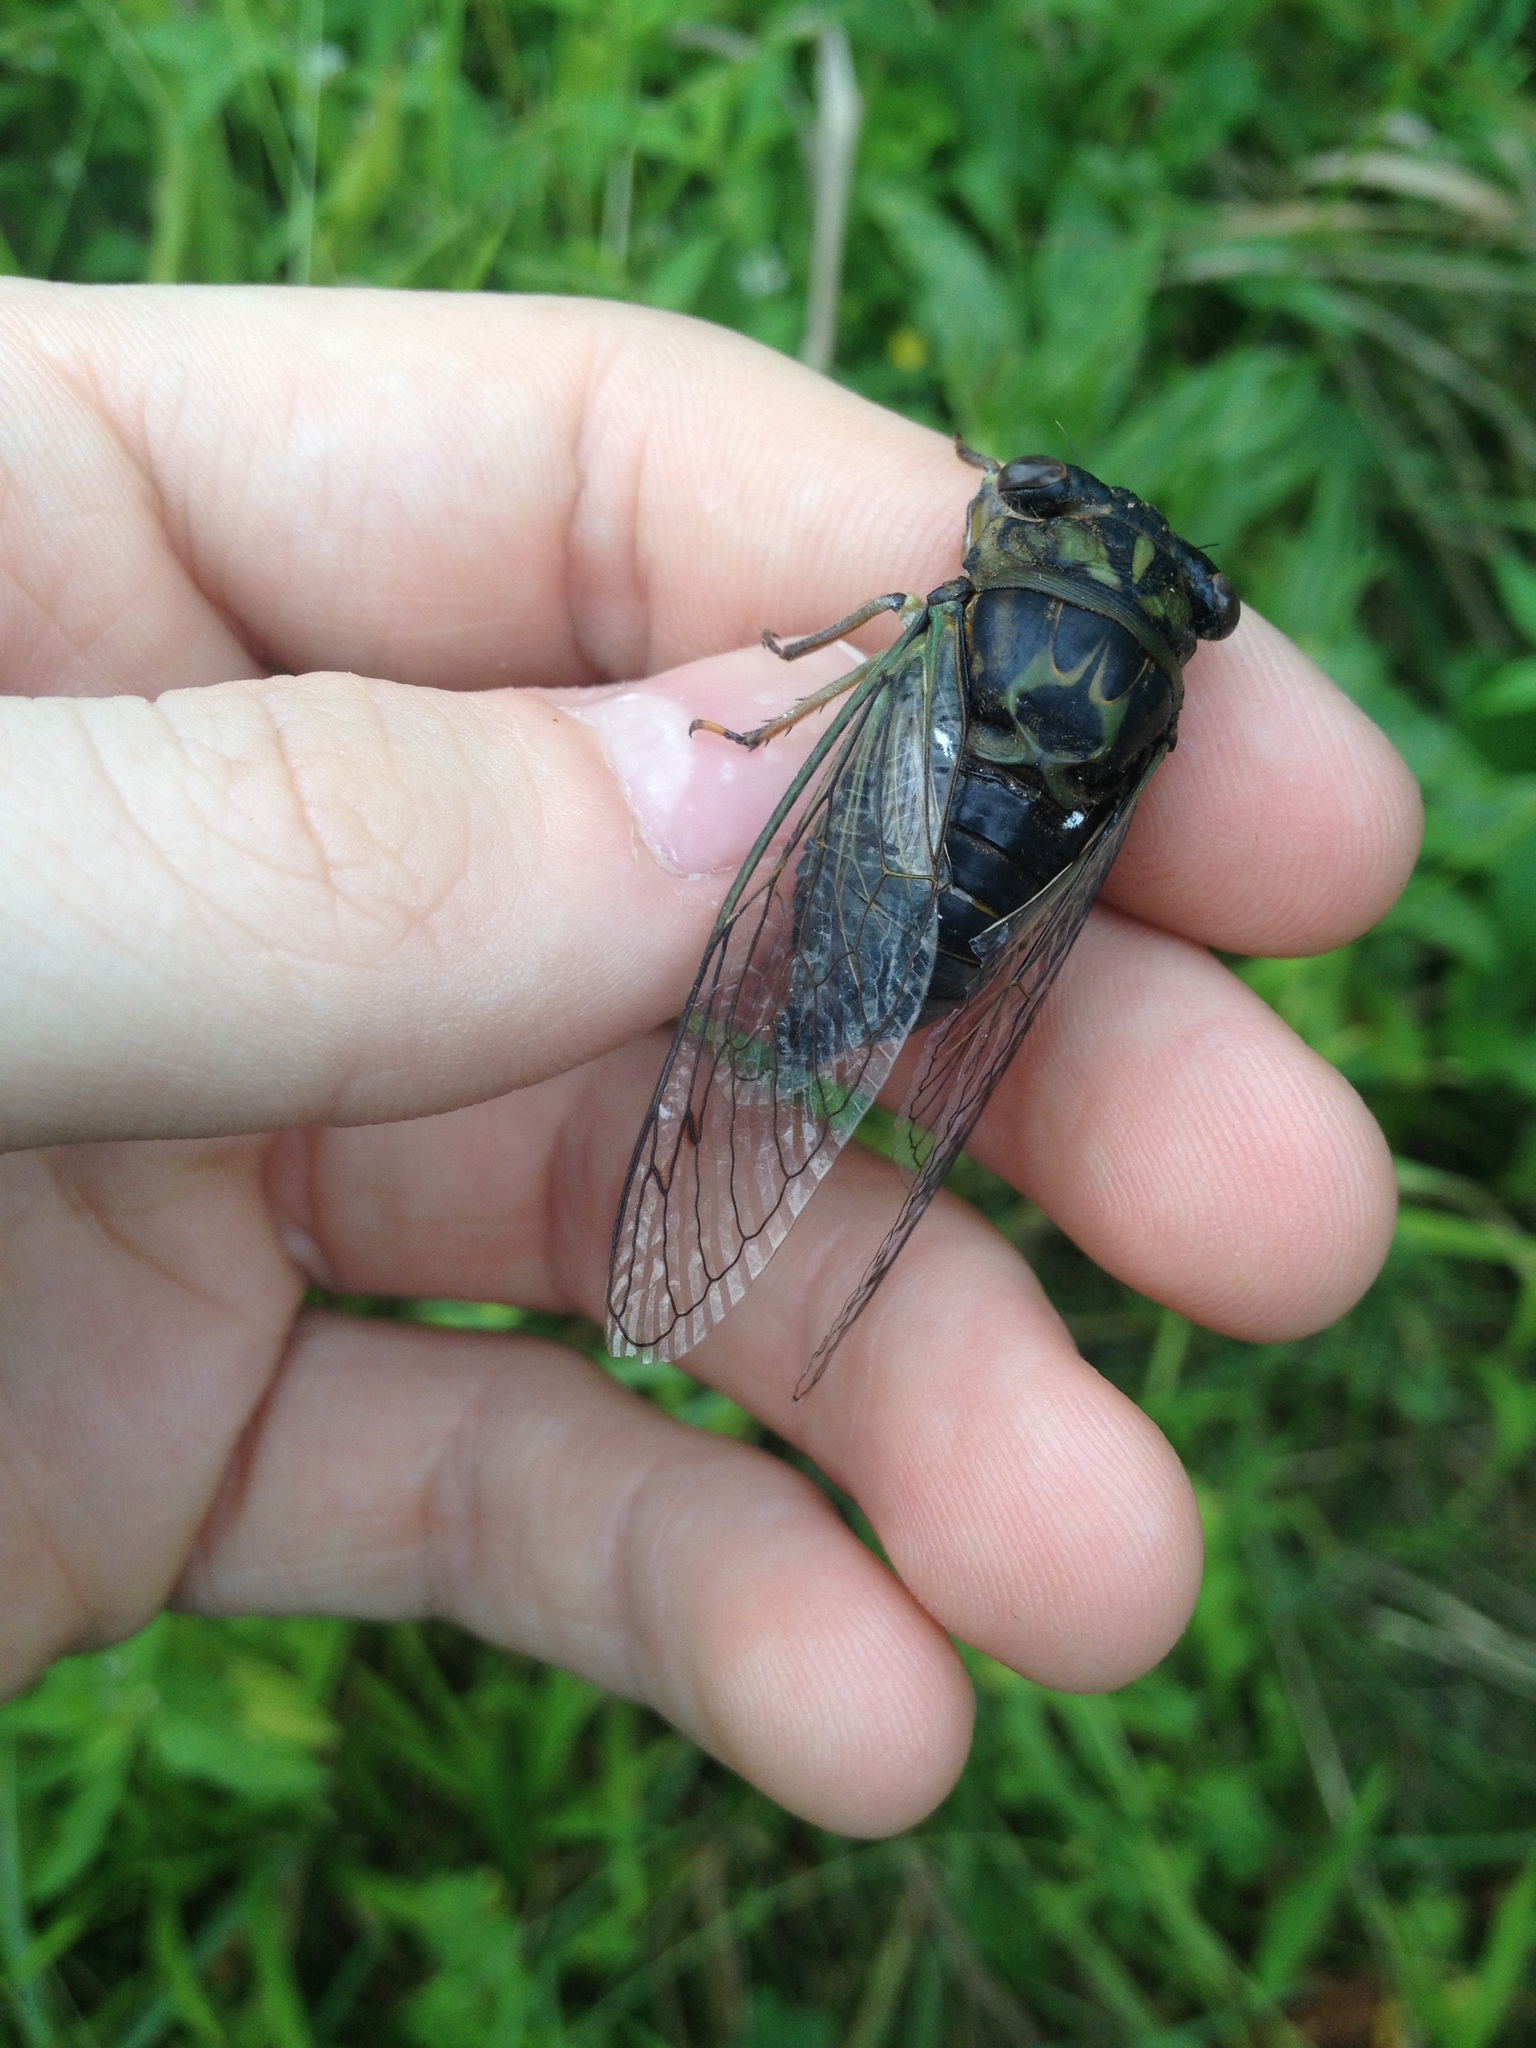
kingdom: Animalia
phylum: Arthropoda
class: Insecta
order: Hemiptera
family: Cicadidae
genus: Neotibicen
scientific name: Neotibicen canicularis
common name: God-day cicada
